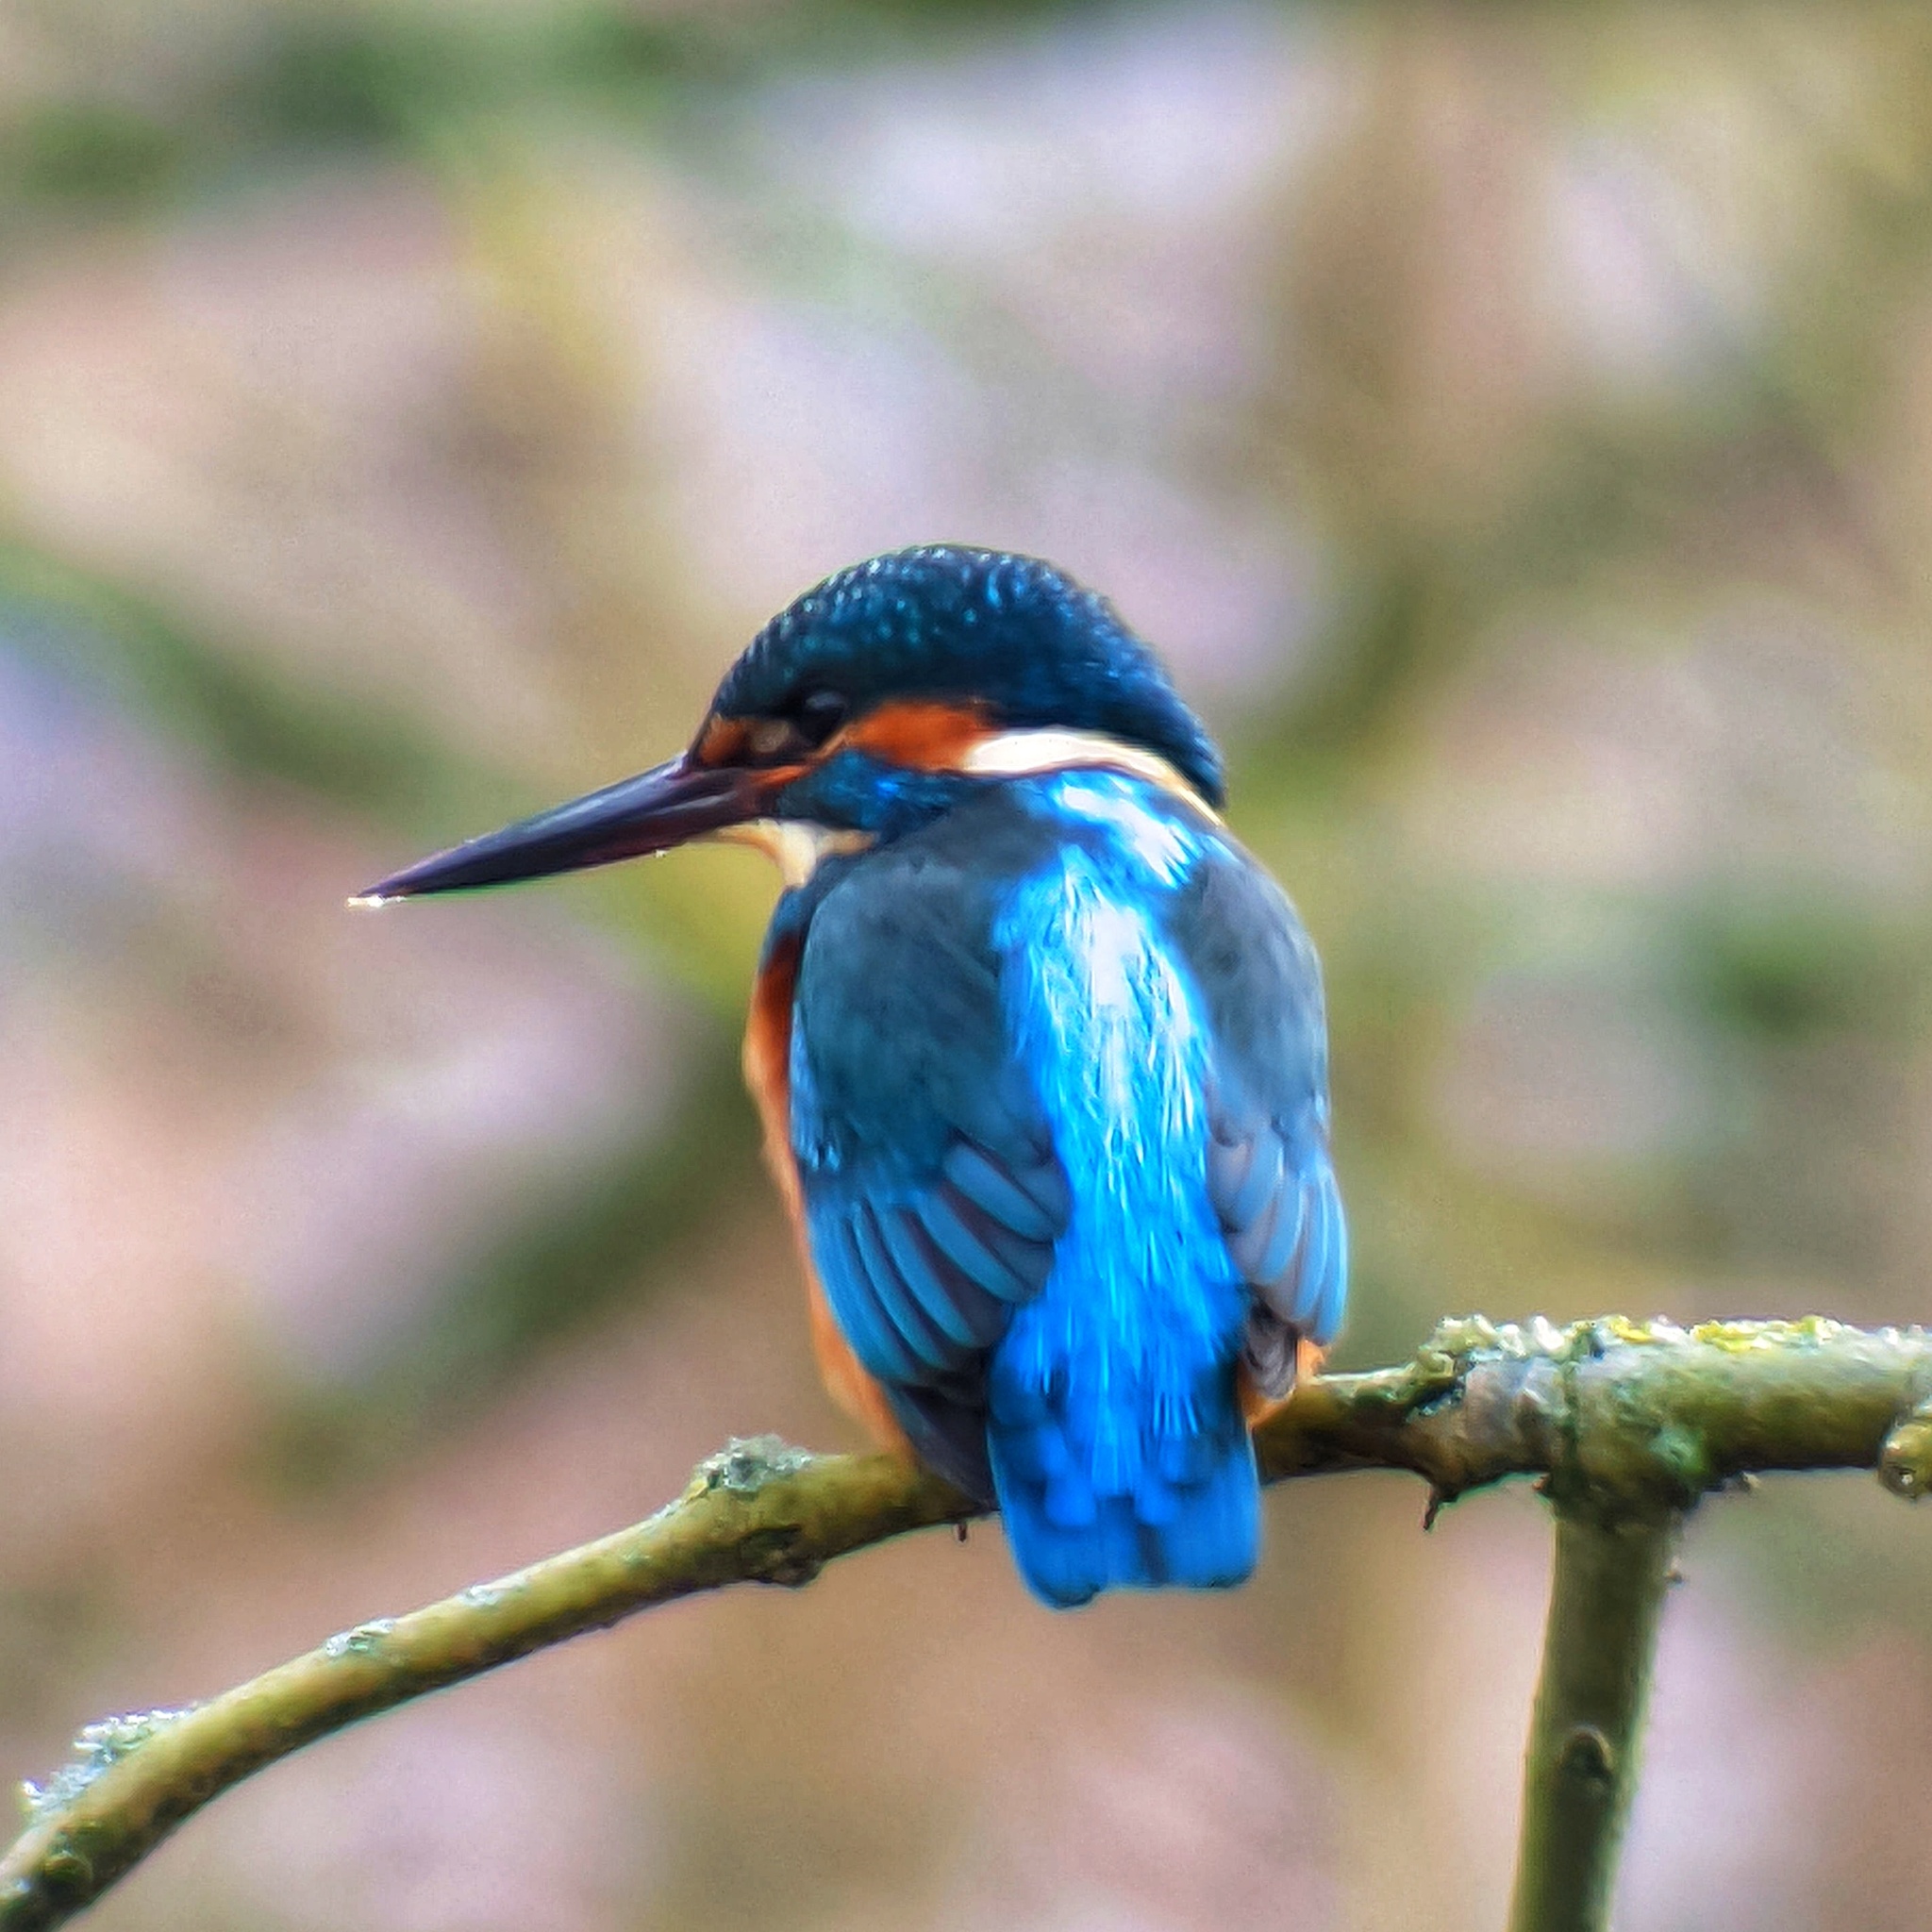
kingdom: Animalia
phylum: Chordata
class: Aves
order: Coraciiformes
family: Alcedinidae
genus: Alcedo
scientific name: Alcedo atthis
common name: Common kingfisher
